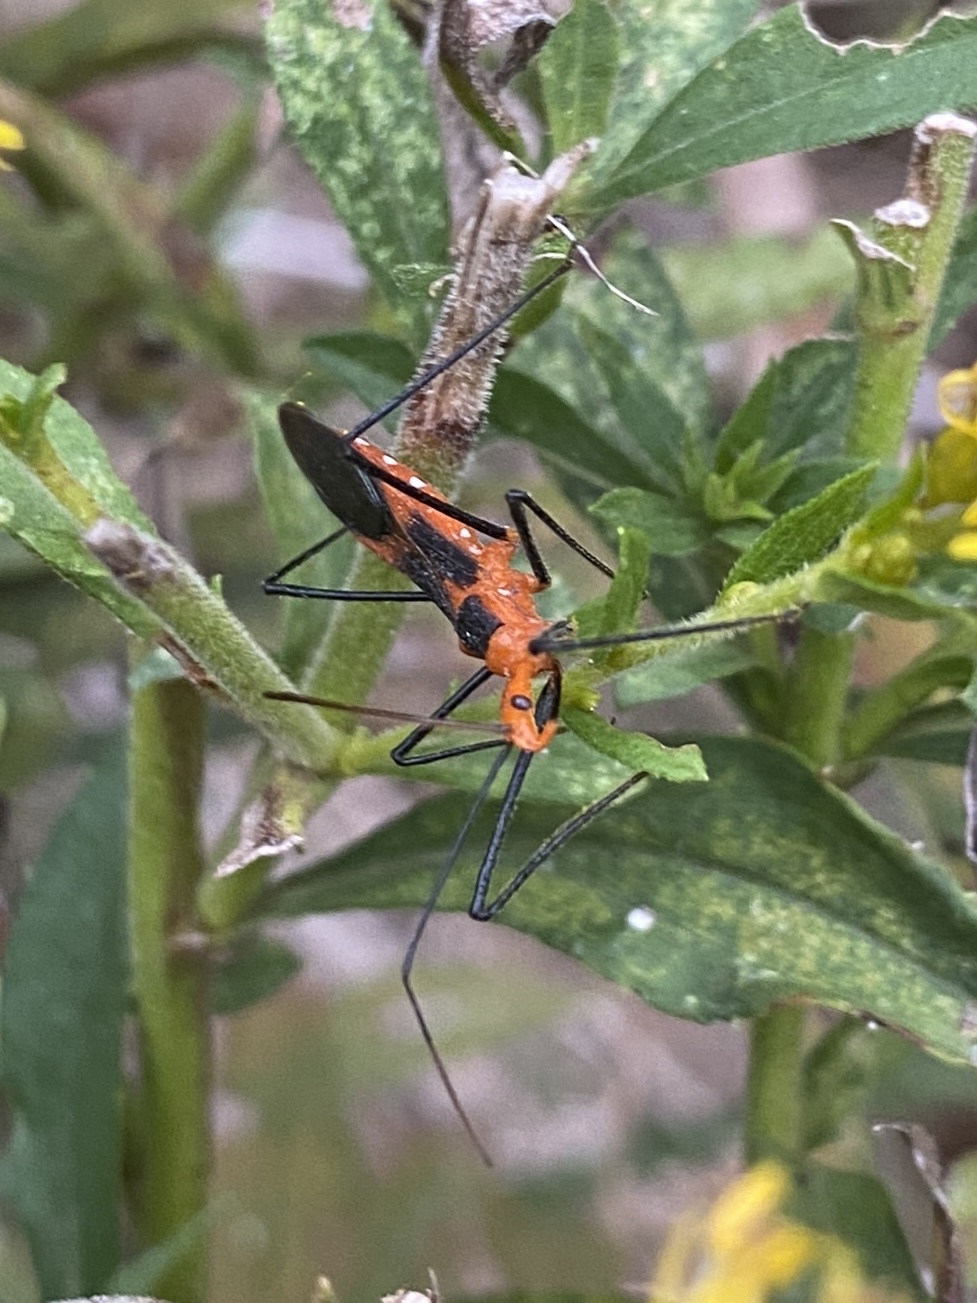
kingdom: Animalia
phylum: Arthropoda
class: Insecta
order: Hemiptera
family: Reduviidae
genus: Zelus
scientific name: Zelus longipes
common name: Milkweed assassin bug
